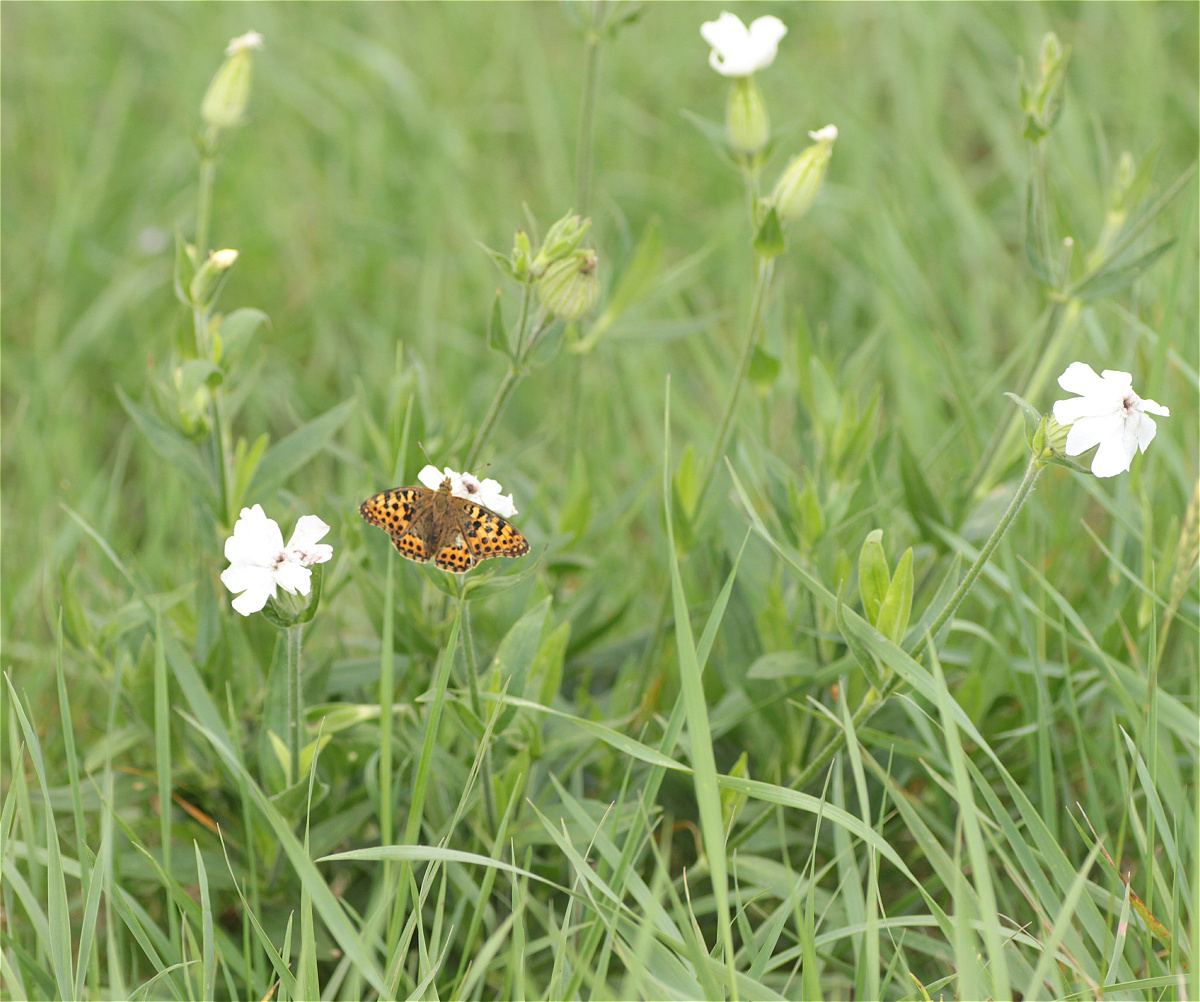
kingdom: Plantae
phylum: Tracheophyta
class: Magnoliopsida
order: Caryophyllales
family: Caryophyllaceae
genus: Silene
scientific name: Silene latifolia
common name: White campion
